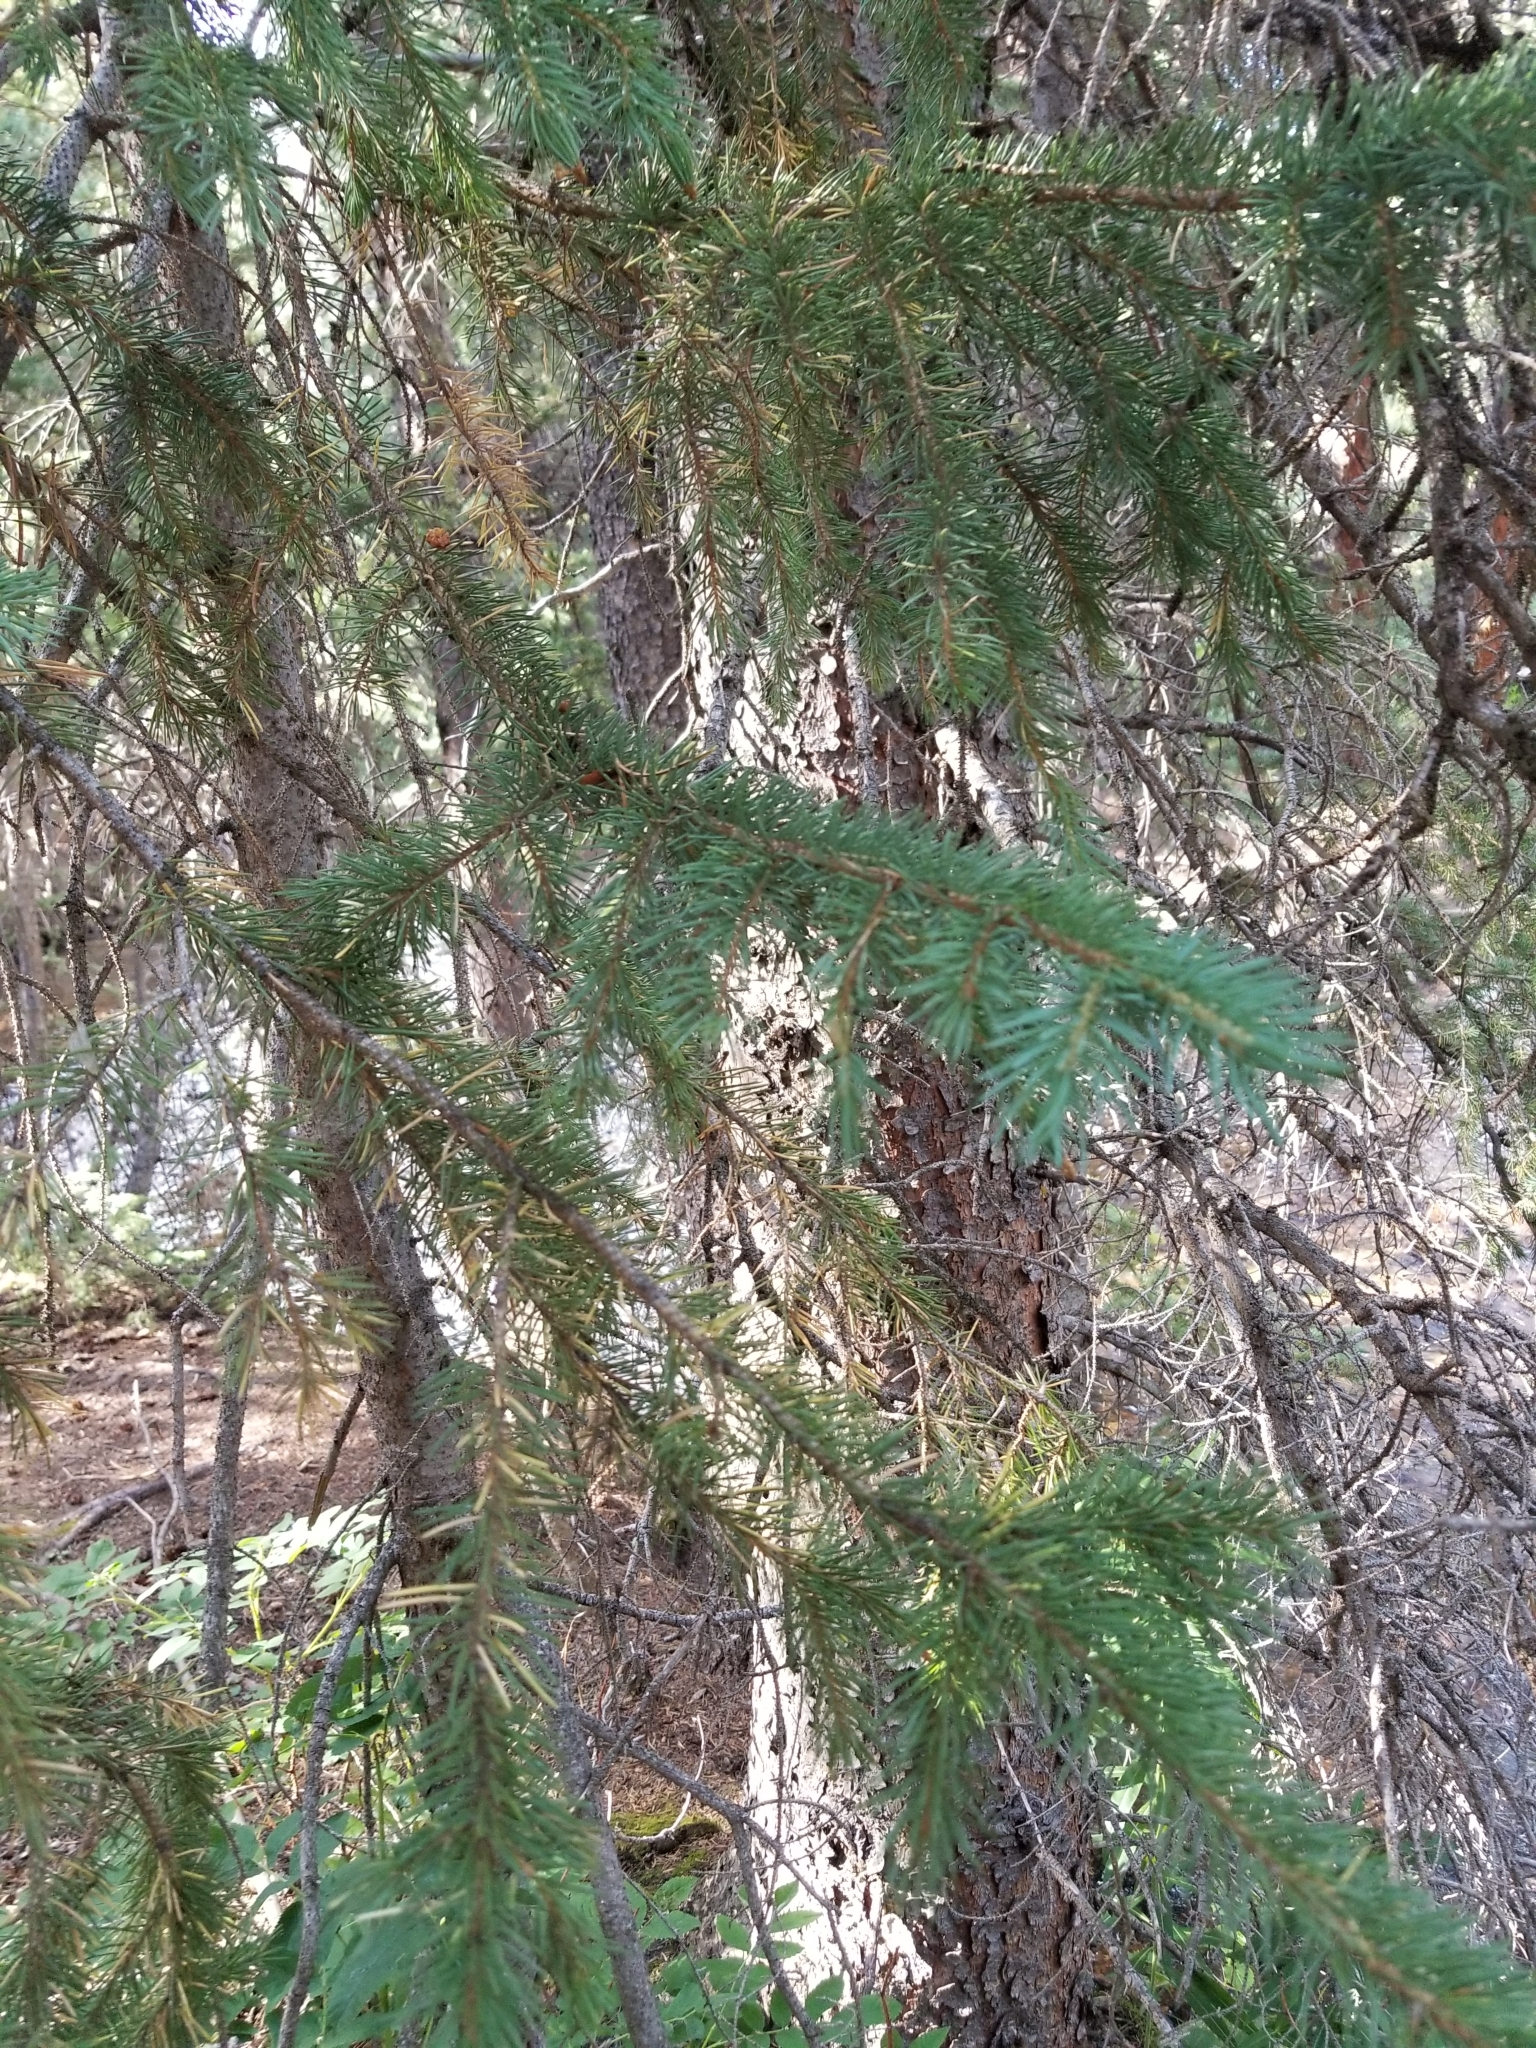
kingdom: Plantae
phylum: Tracheophyta
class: Pinopsida
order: Pinales
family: Pinaceae
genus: Picea
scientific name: Picea engelmannii
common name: Engelmann spruce
